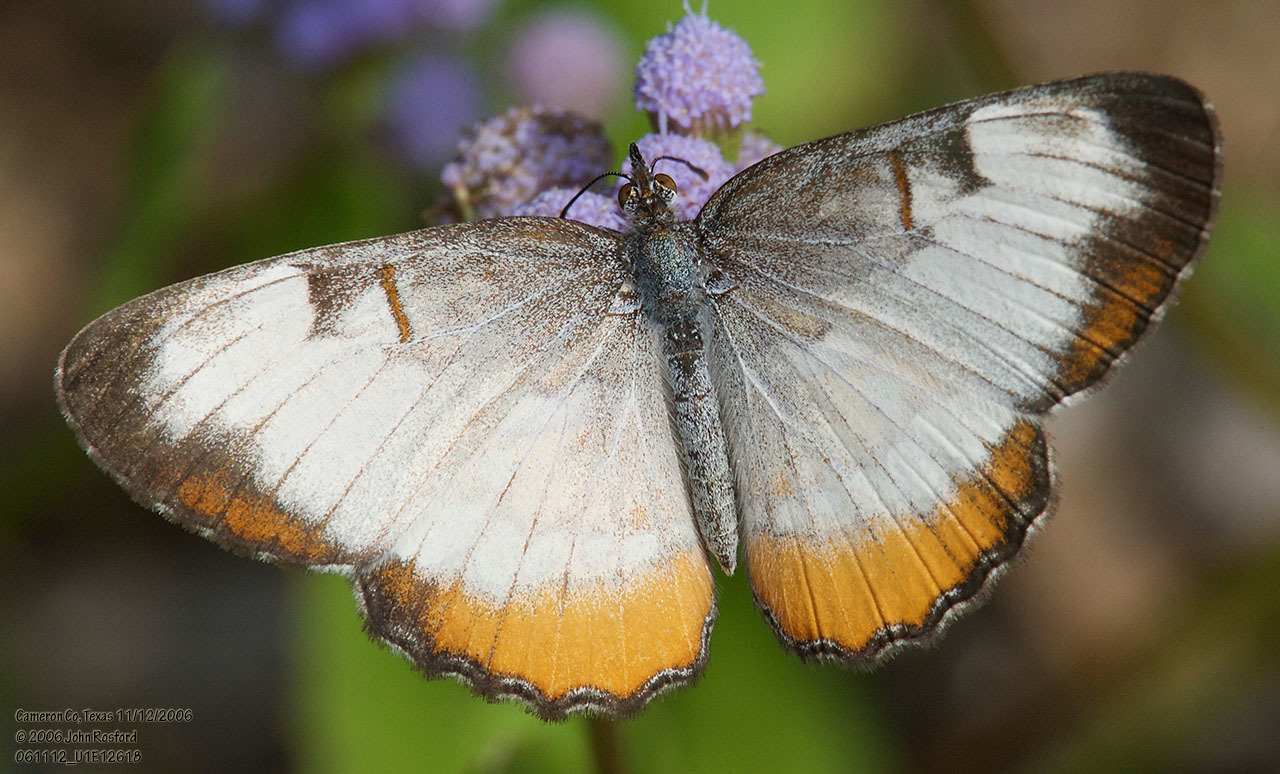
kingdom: Animalia
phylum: Arthropoda
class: Insecta
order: Lepidoptera
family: Nymphalidae
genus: Mestra
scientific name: Mestra amymone
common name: Common mestra
